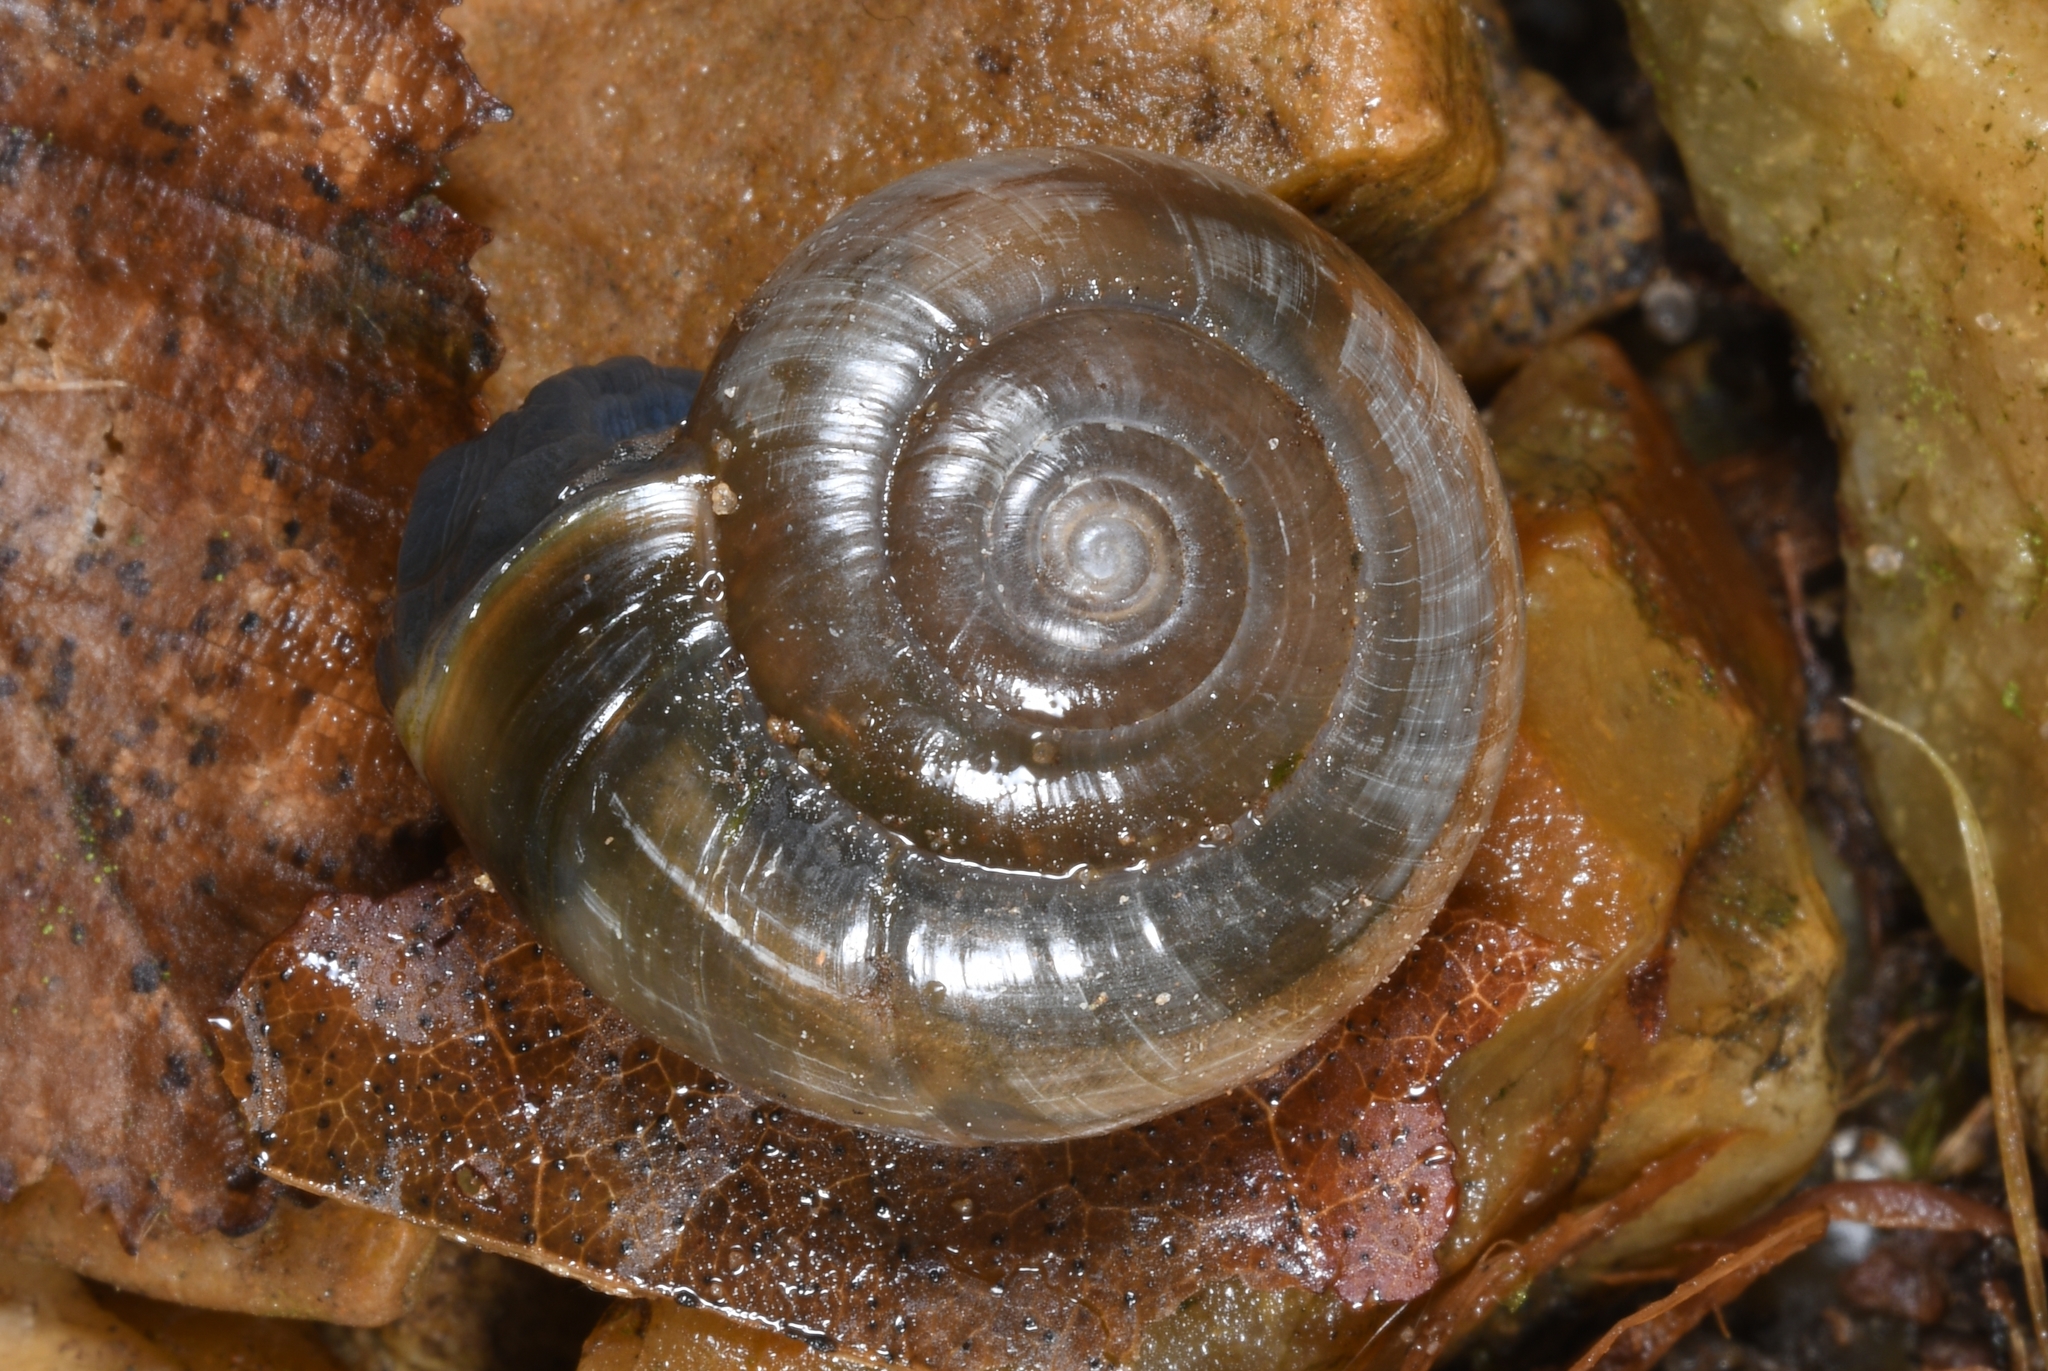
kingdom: Animalia
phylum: Mollusca
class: Gastropoda
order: Stylommatophora
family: Oxychilidae
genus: Oxychilus
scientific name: Oxychilus draparnaudi
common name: Draparnaud's glass snail
